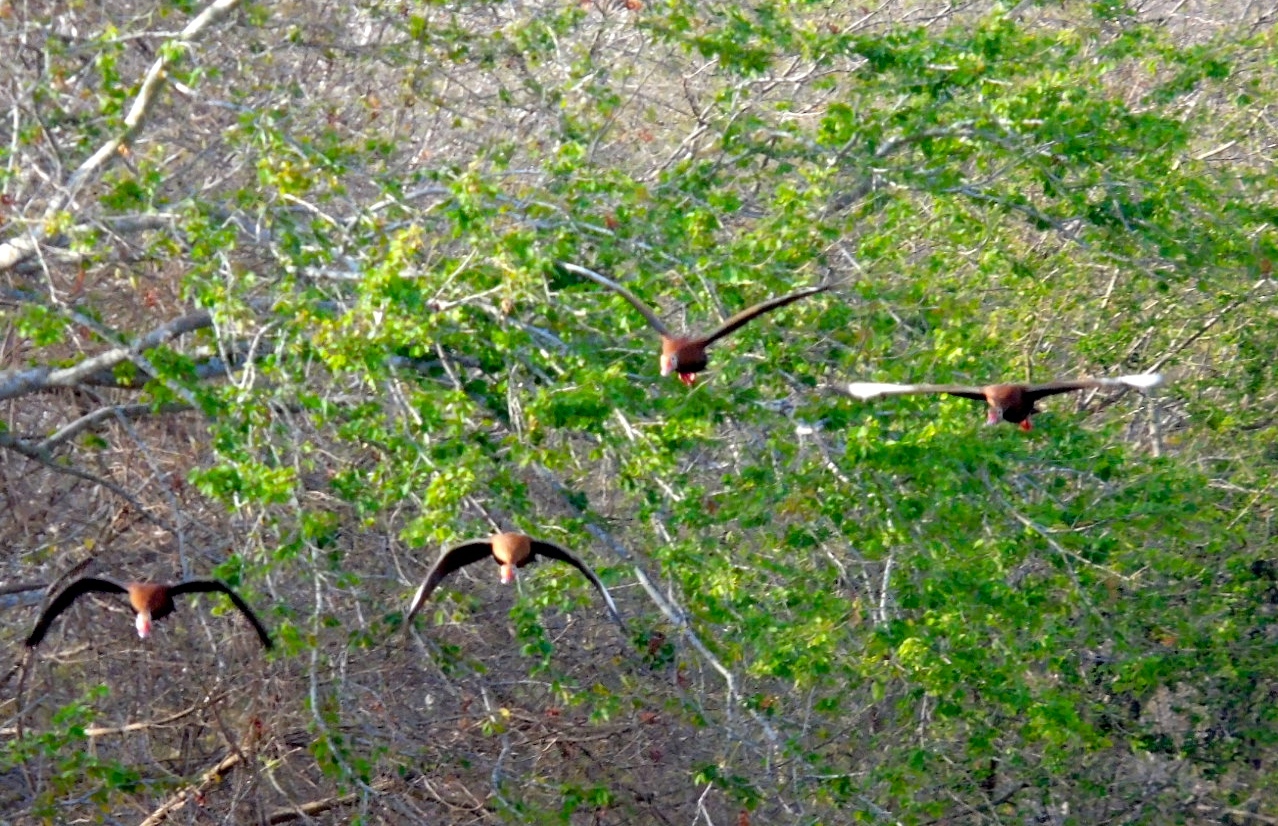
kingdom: Animalia
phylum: Chordata
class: Aves
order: Anseriformes
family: Anatidae
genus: Dendrocygna
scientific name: Dendrocygna autumnalis
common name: Black-bellied whistling duck
